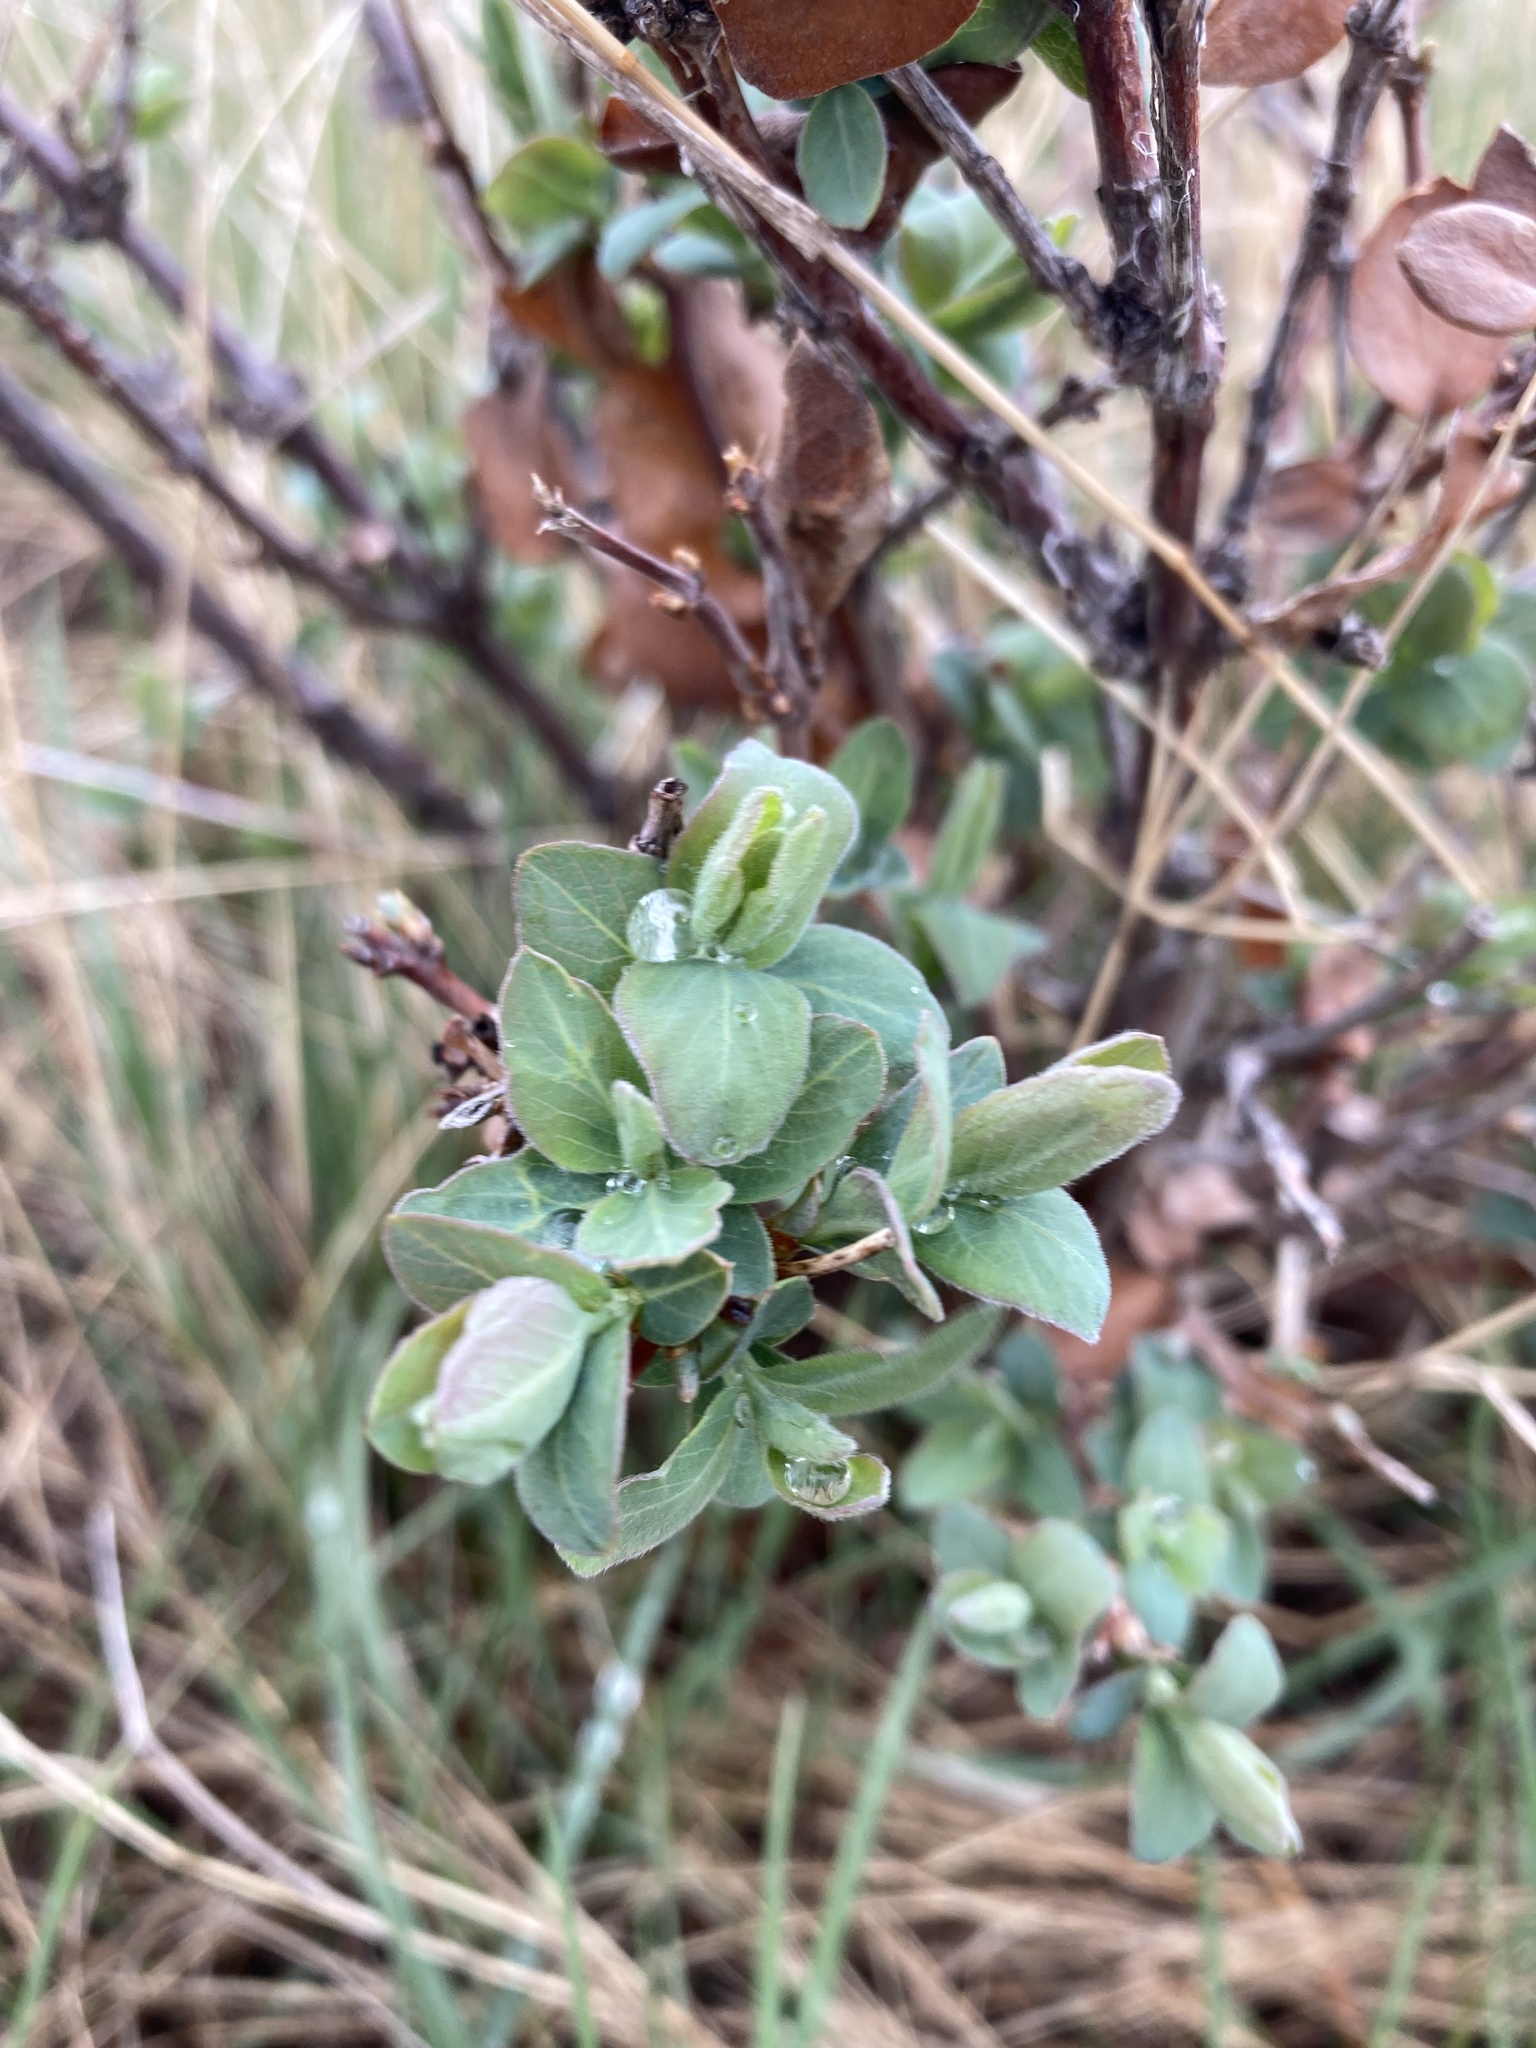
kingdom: Plantae
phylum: Tracheophyta
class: Magnoliopsida
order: Dipsacales
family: Caprifoliaceae
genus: Symphoricarpos
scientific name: Symphoricarpos occidentalis
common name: Wolfberry
